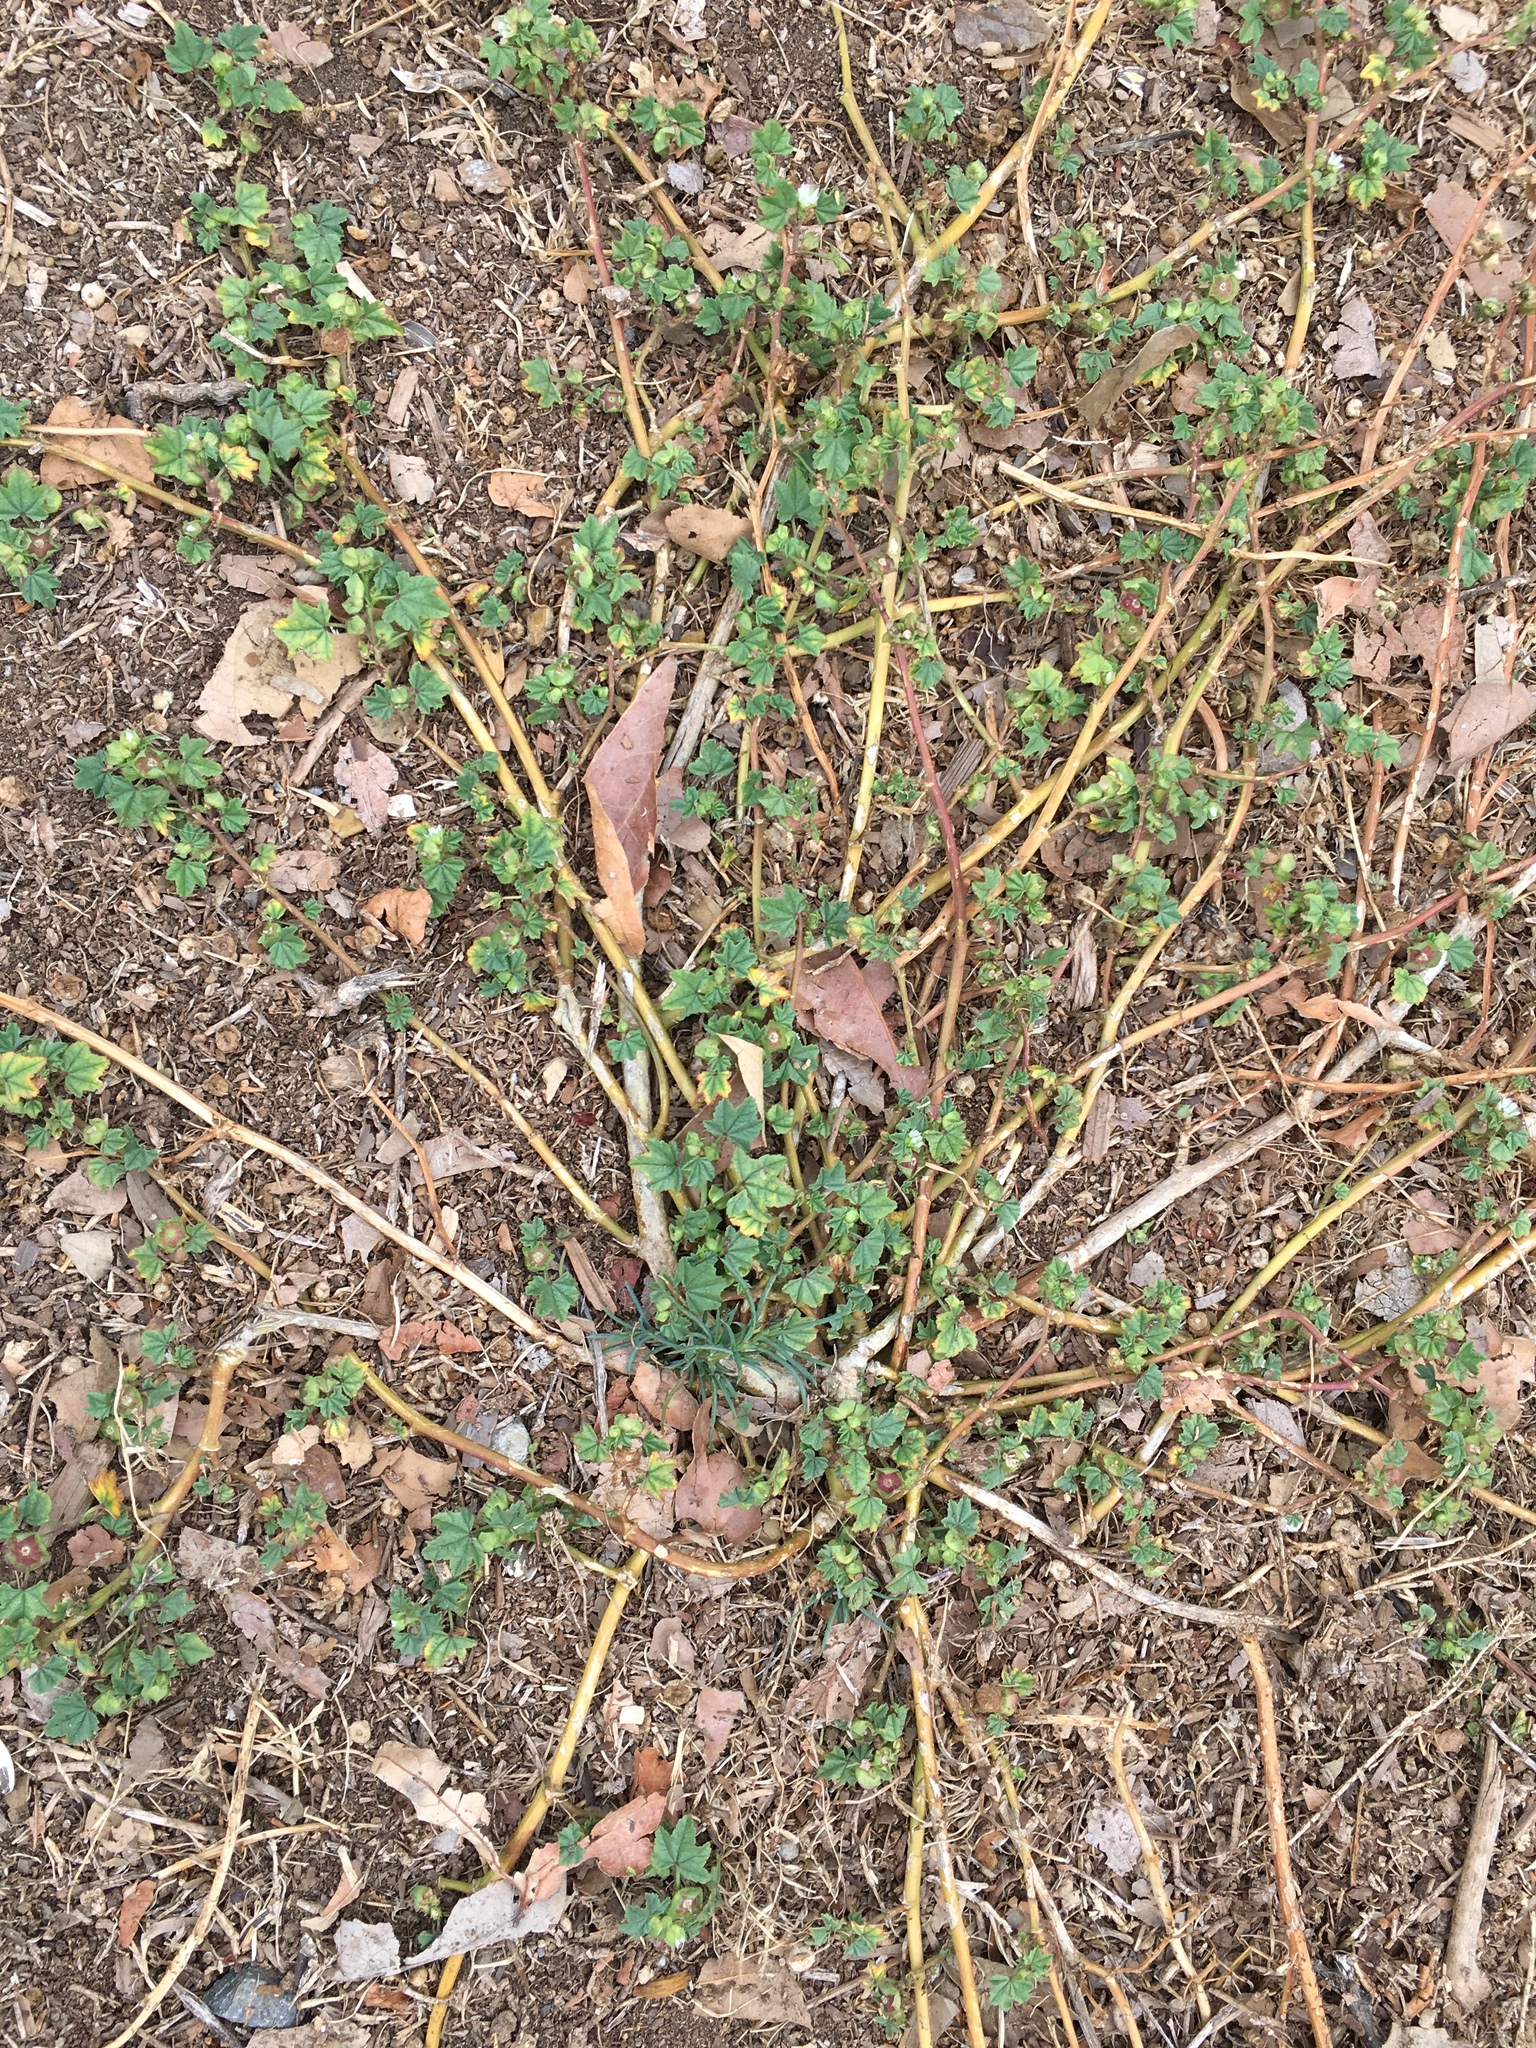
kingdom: Plantae
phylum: Tracheophyta
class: Magnoliopsida
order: Malvales
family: Malvaceae
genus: Malva
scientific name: Malva parviflora
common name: Least mallow
